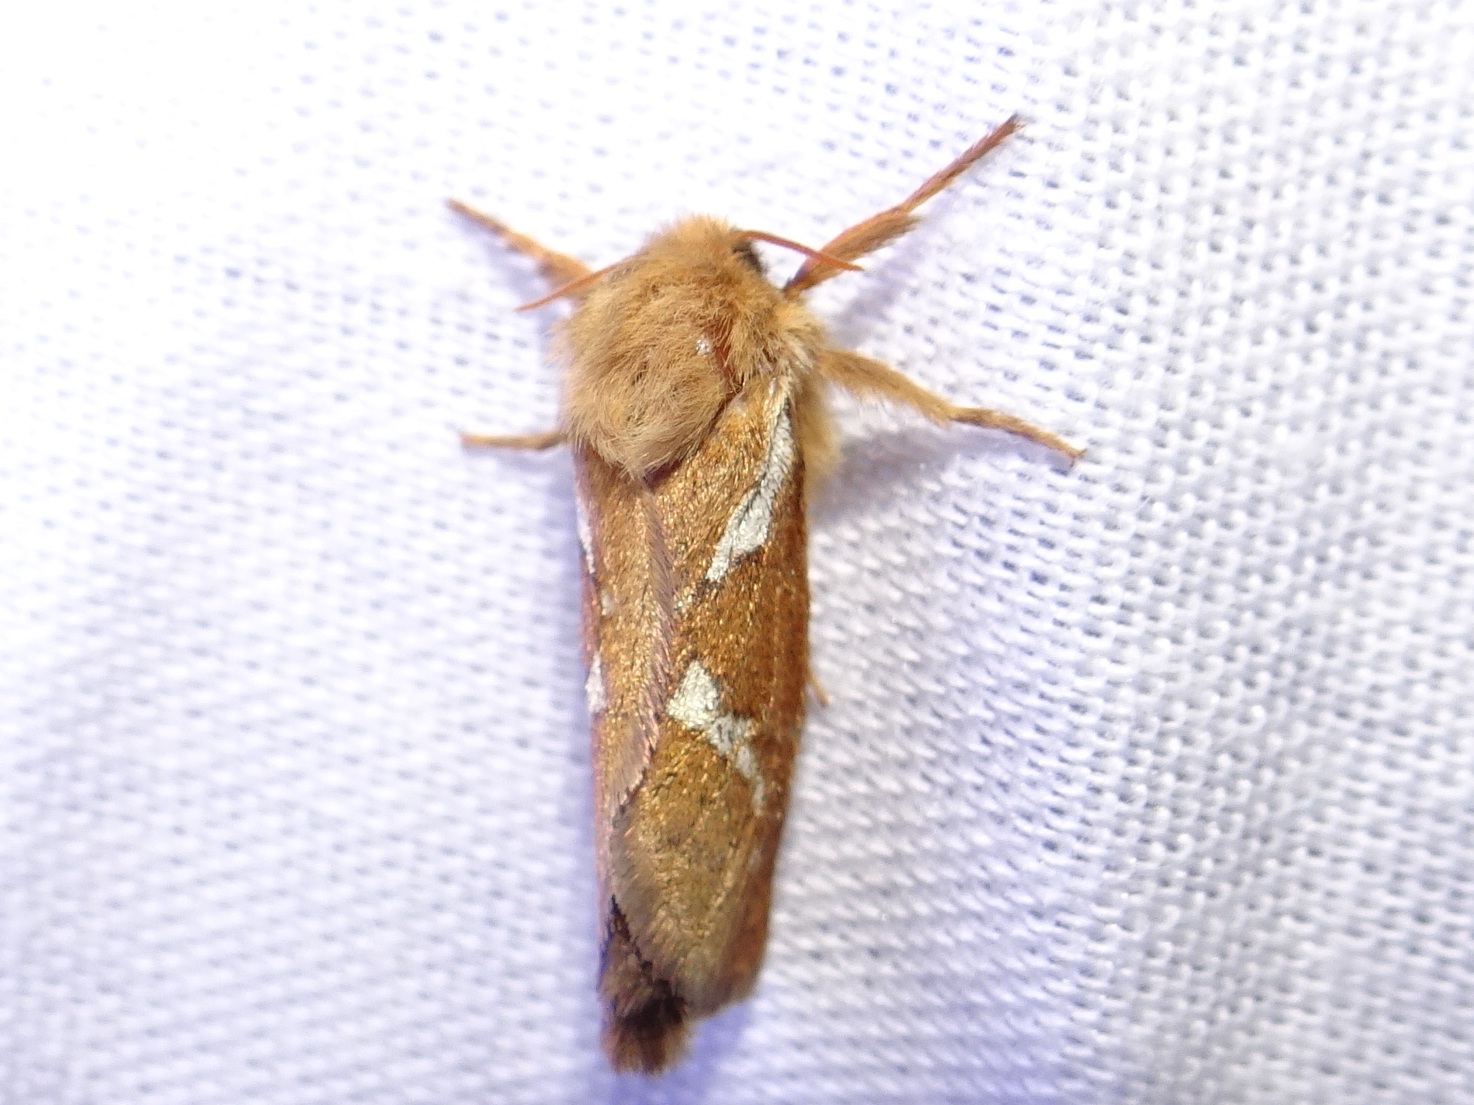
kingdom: Animalia
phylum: Arthropoda
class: Insecta
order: Lepidoptera
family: Hepialidae
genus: Korscheltellus
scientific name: Korscheltellus lupulina
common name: Common swift
